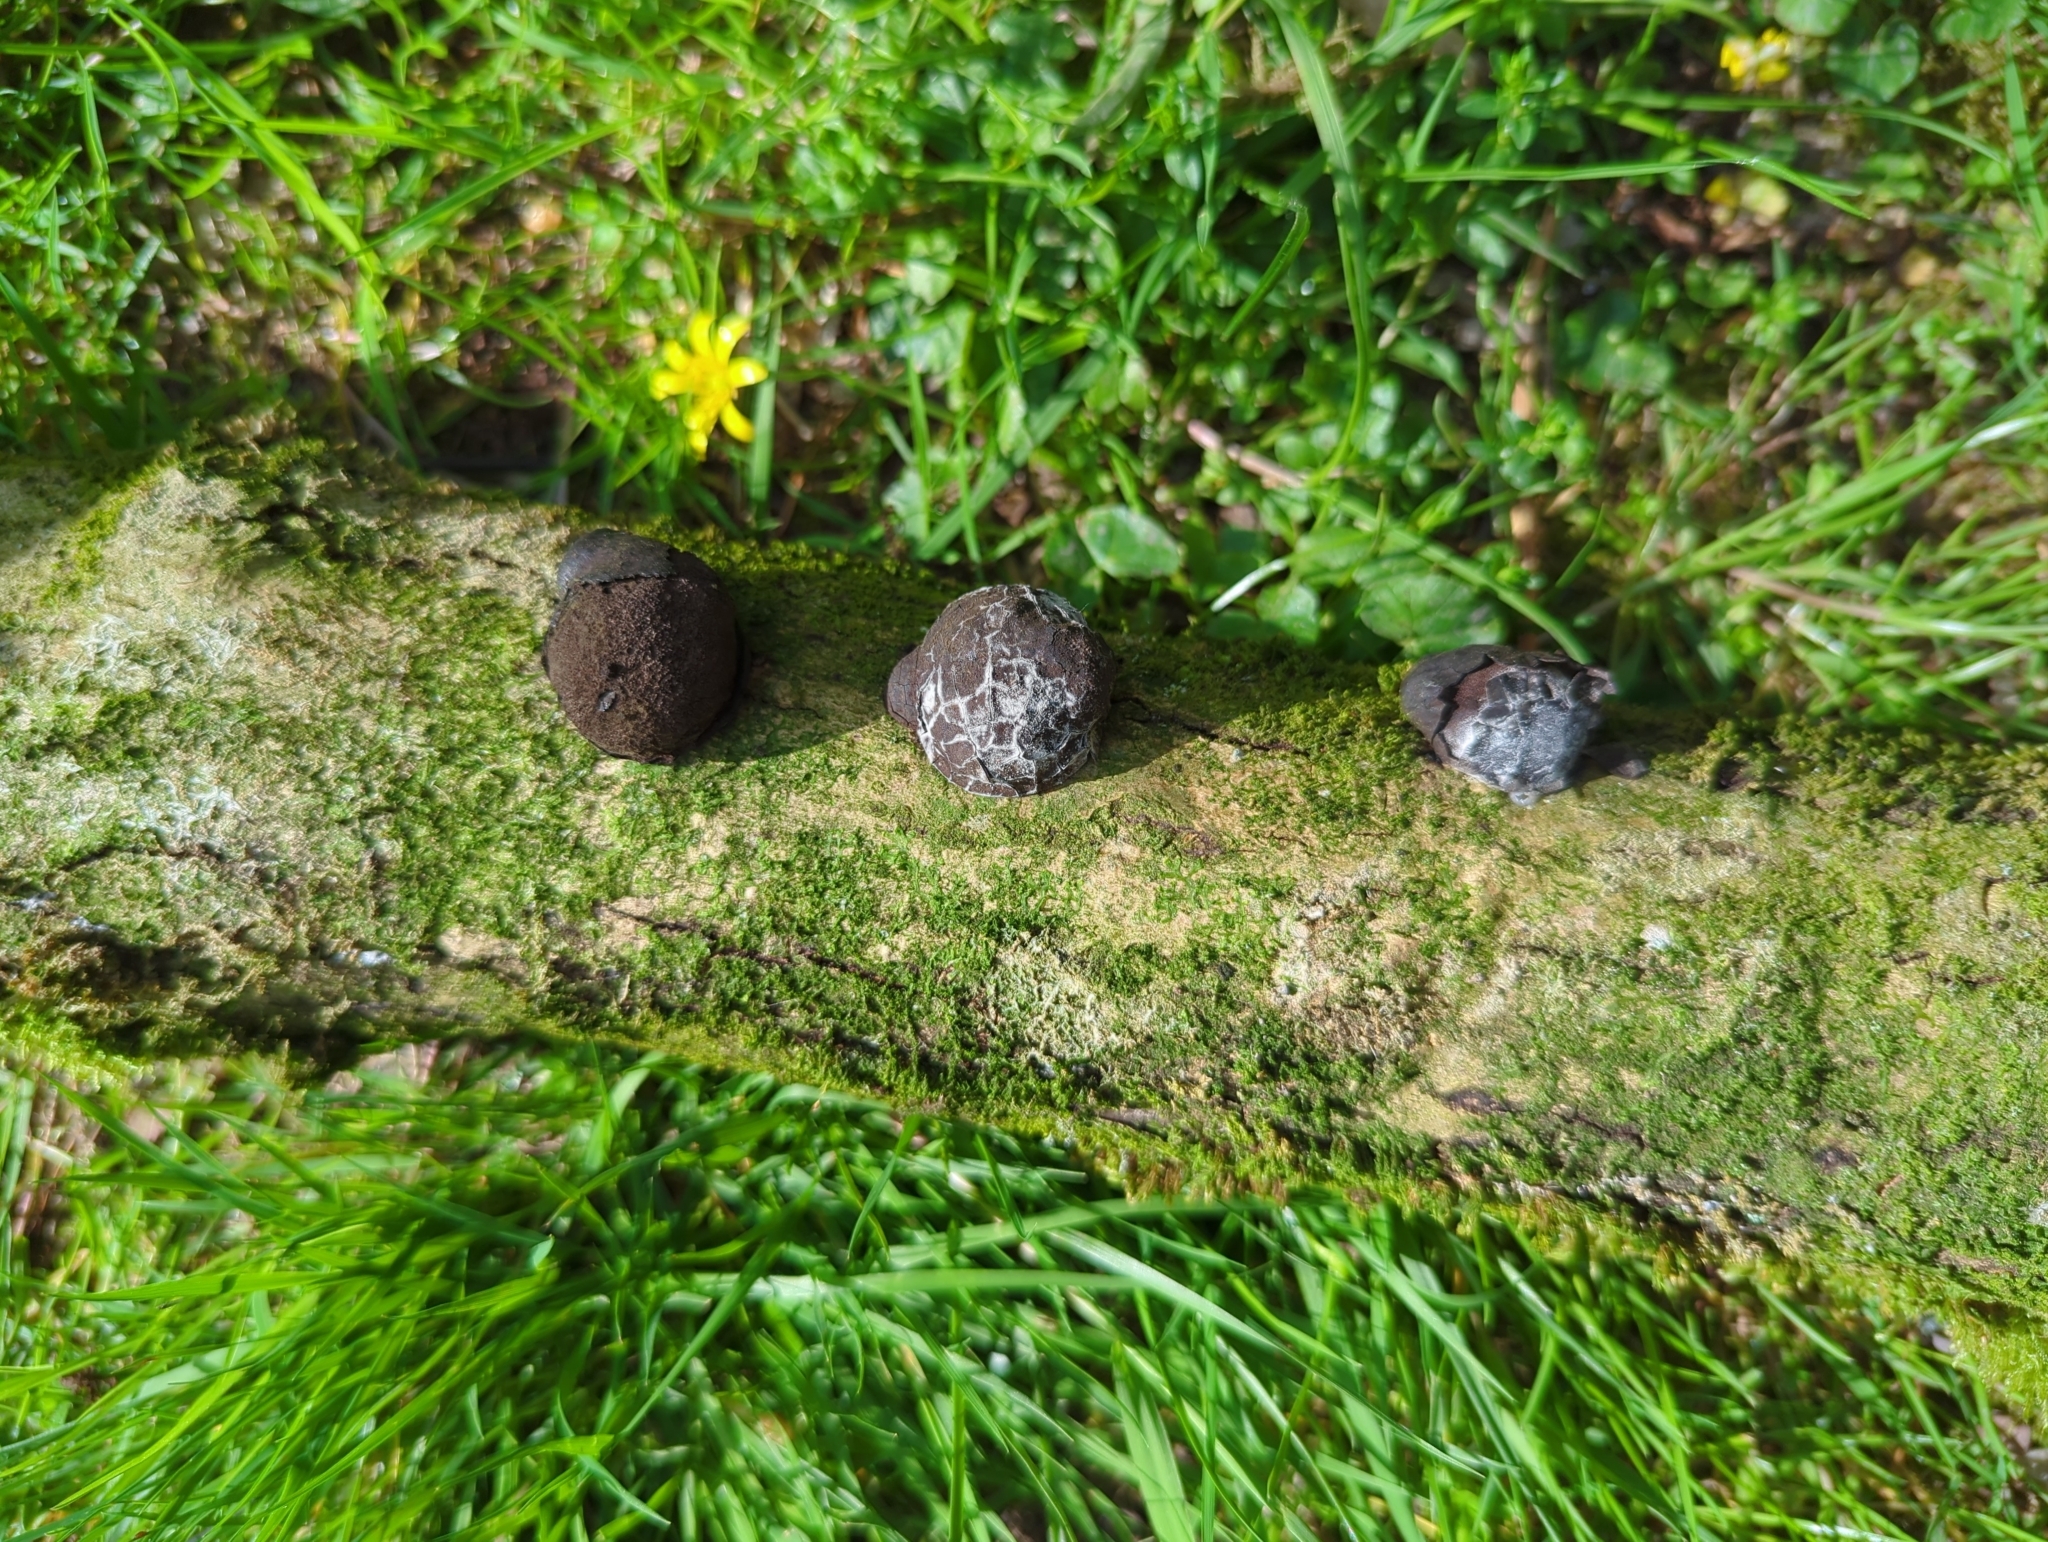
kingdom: Fungi
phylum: Ascomycota
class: Sordariomycetes
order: Xylariales
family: Hypoxylaceae
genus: Daldinia
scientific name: Daldinia concentrica
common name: Cramp balls
